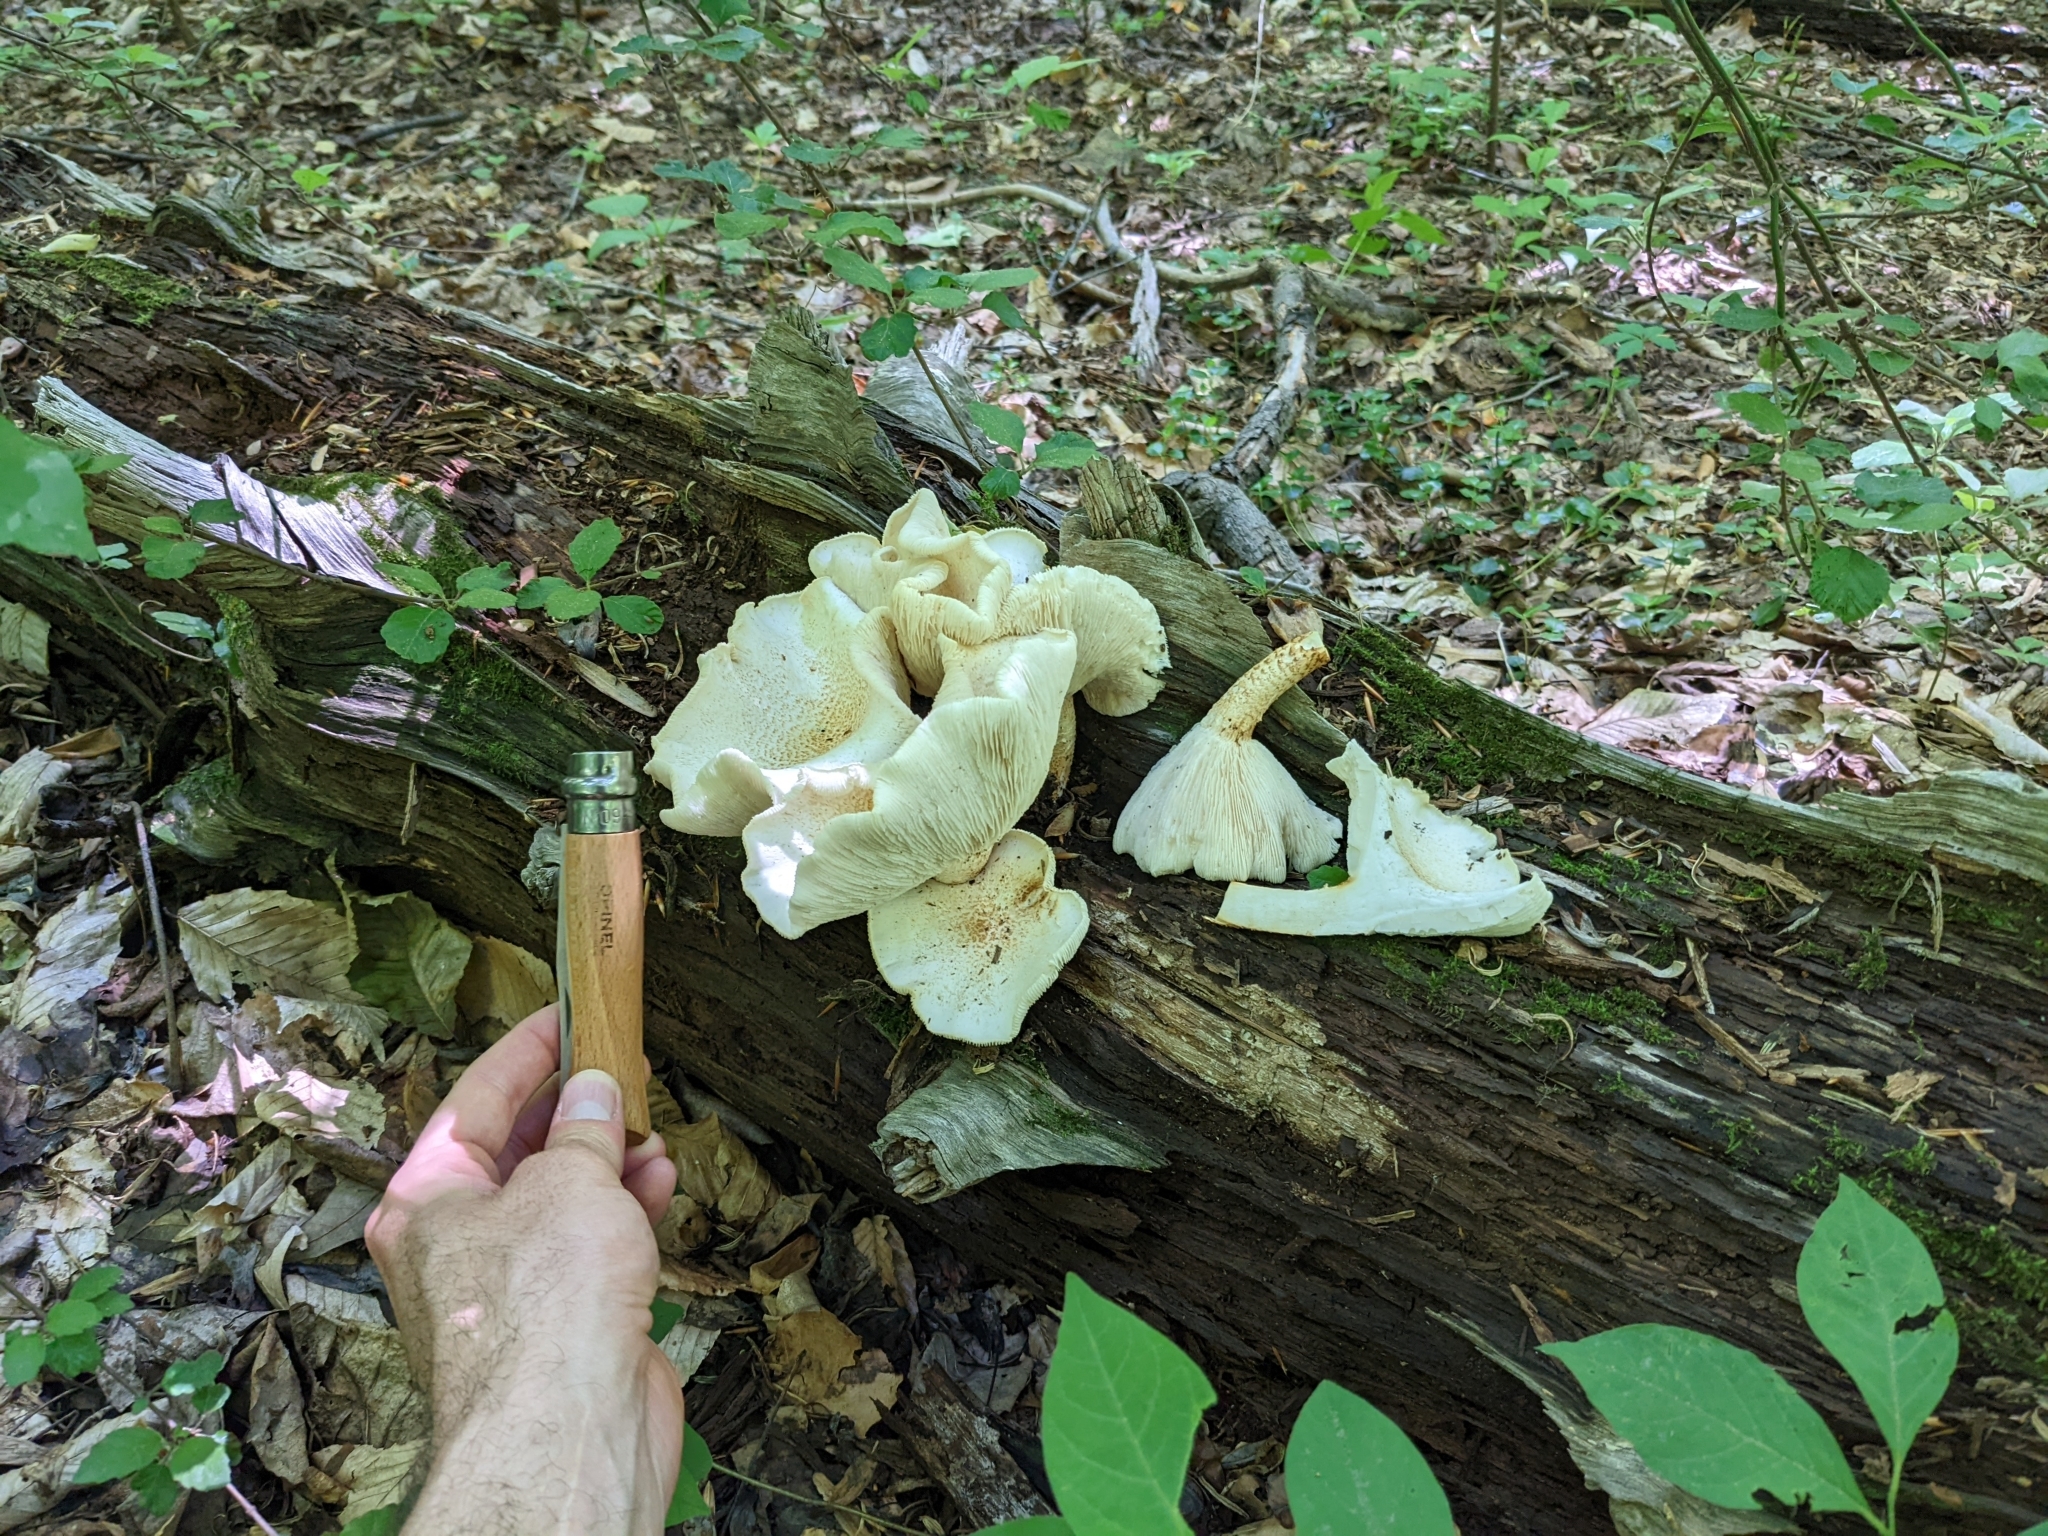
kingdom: Fungi
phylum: Basidiomycota
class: Agaricomycetes
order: Gloeophyllales
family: Gloeophyllaceae
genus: Neolentinus
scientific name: Neolentinus lepideus
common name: Scaly sawgill
